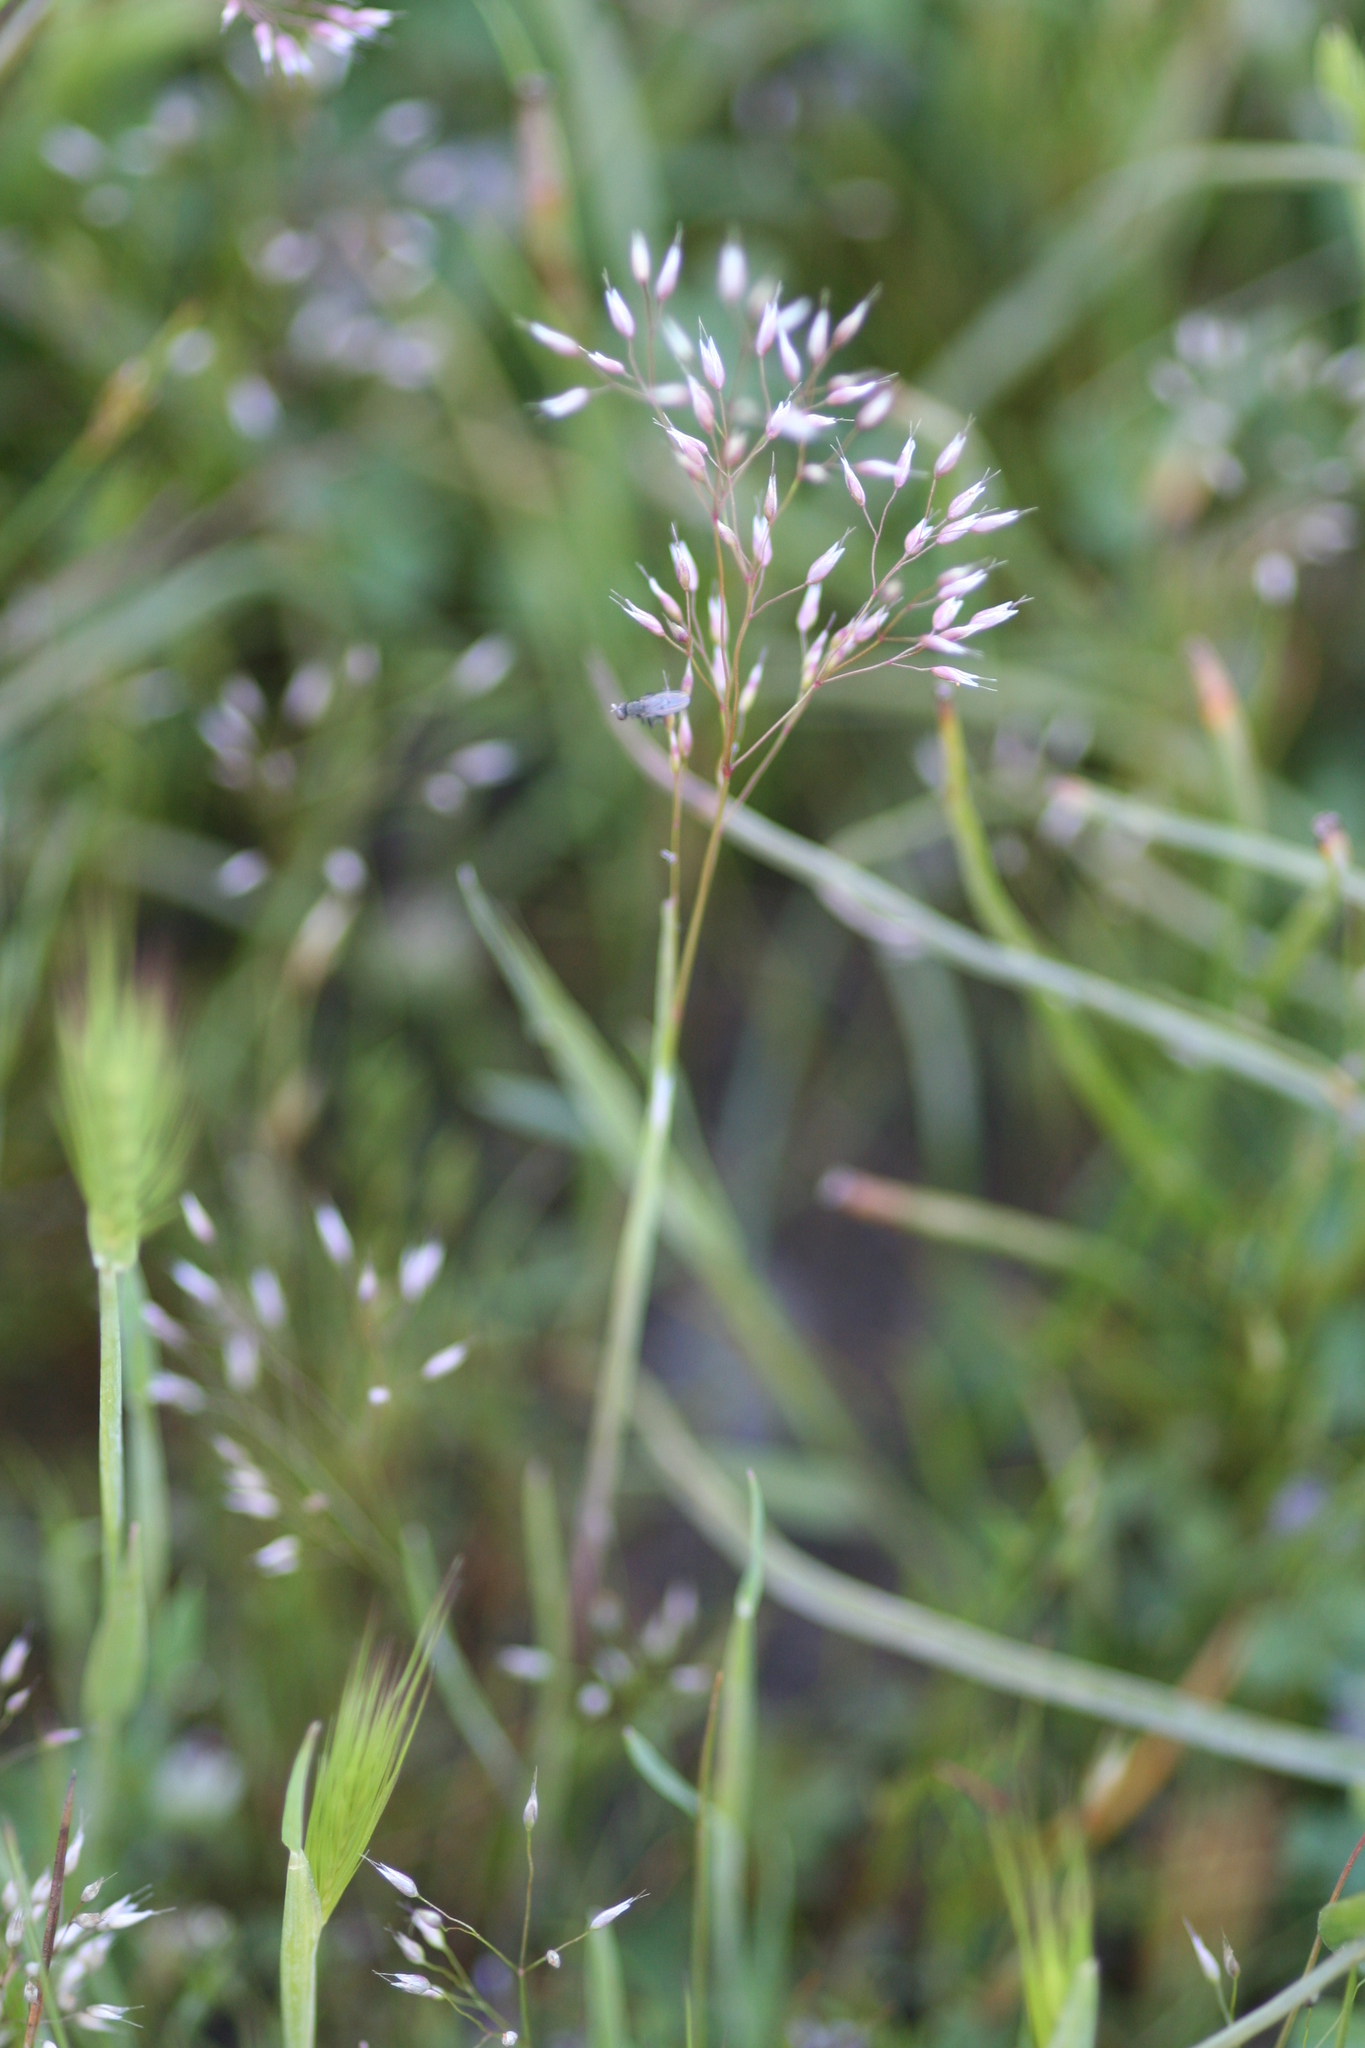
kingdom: Plantae
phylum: Tracheophyta
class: Liliopsida
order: Poales
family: Poaceae
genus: Aira
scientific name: Aira caryophyllea
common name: Silver hairgrass
